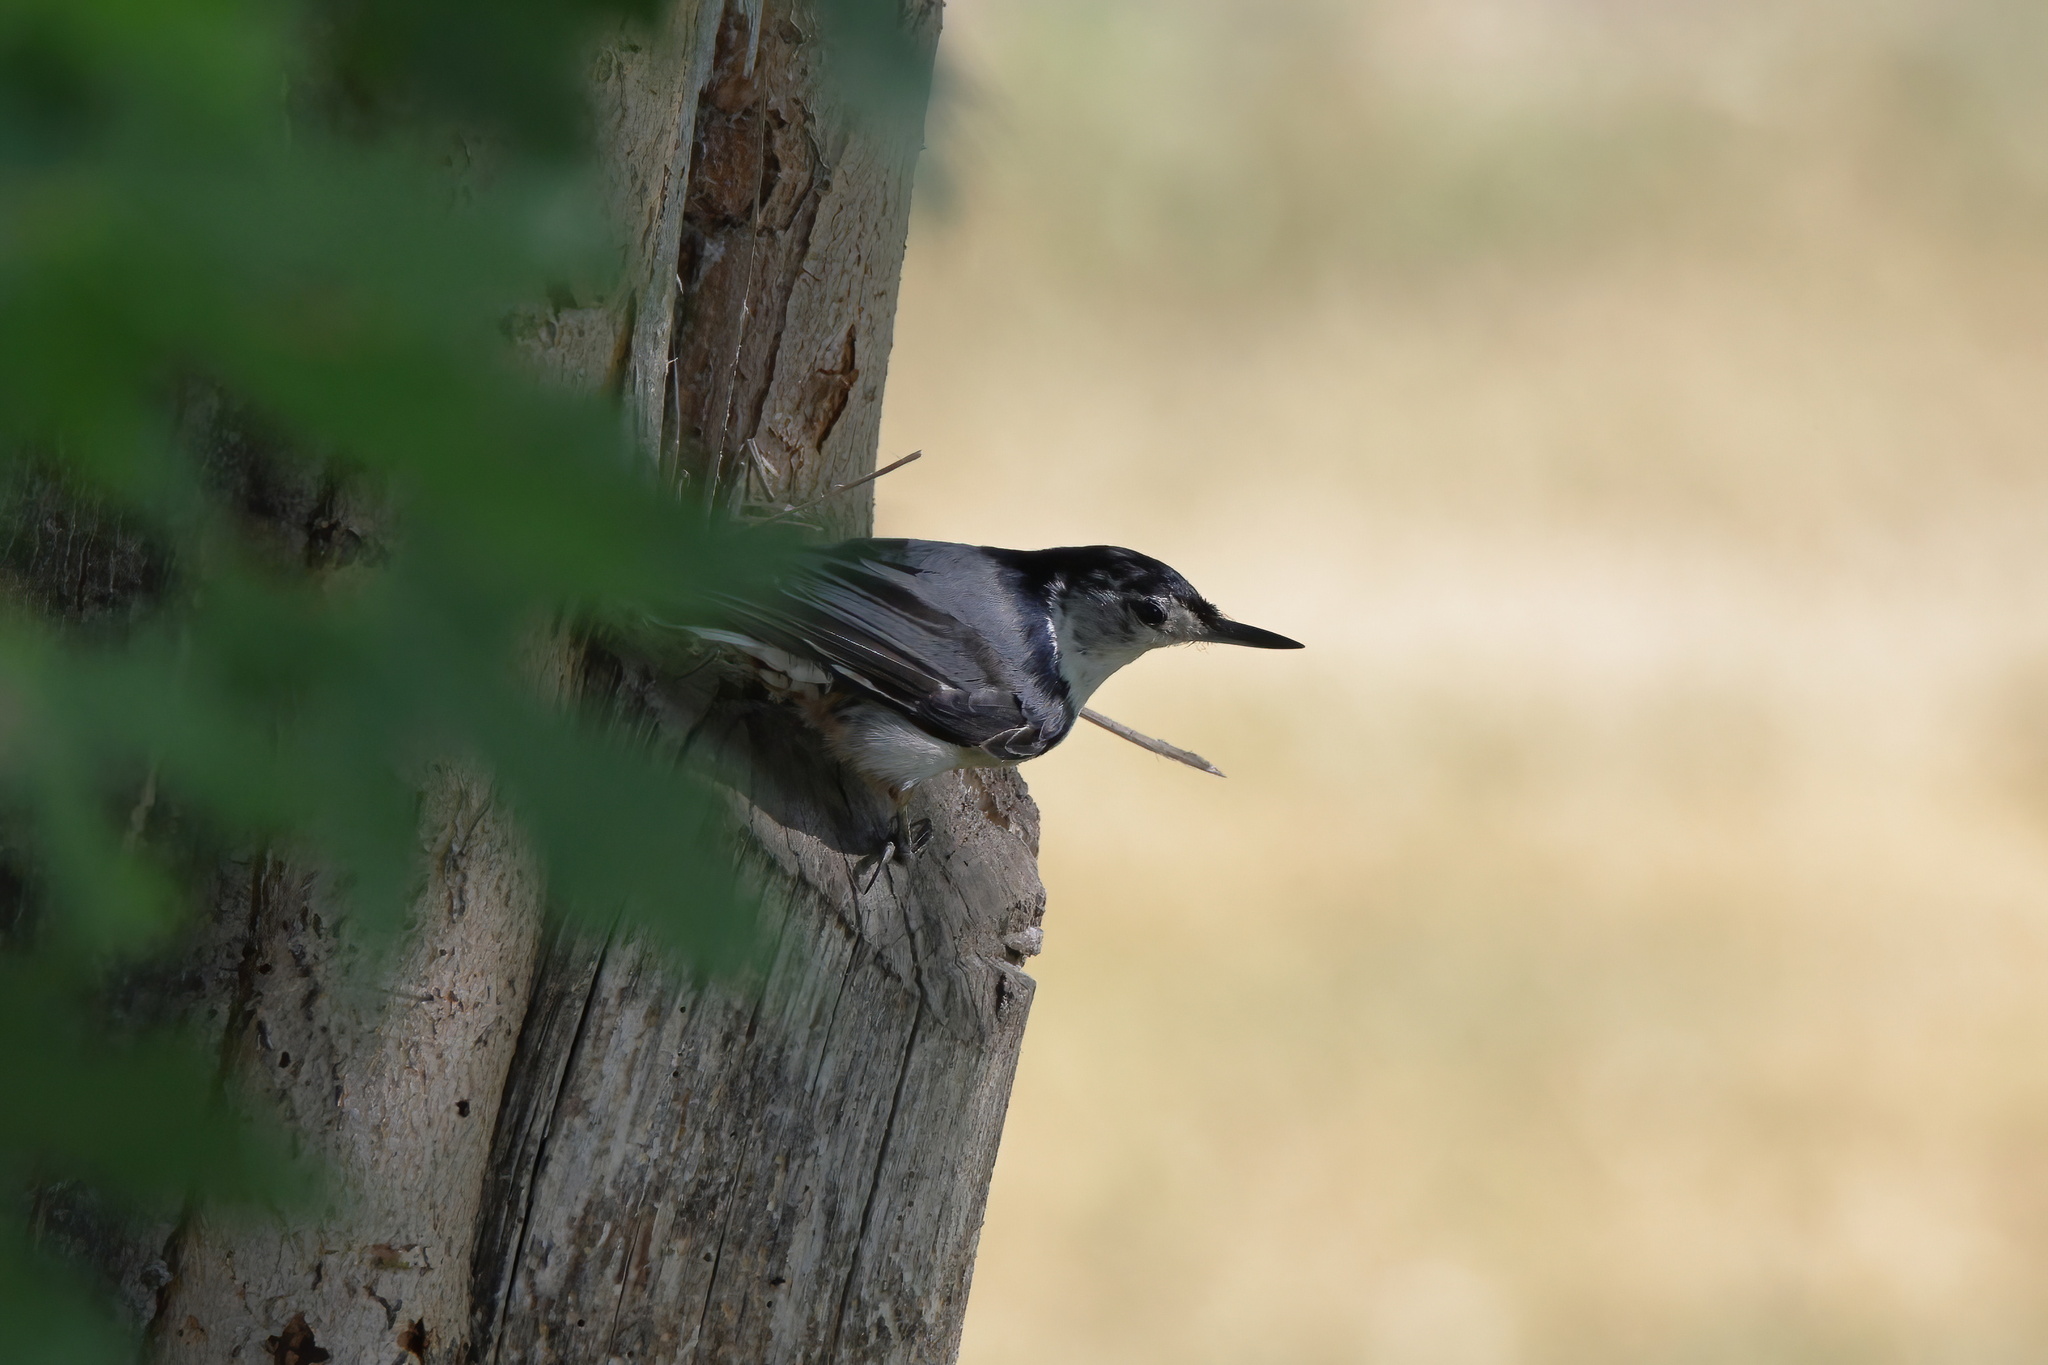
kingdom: Animalia
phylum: Chordata
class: Aves
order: Passeriformes
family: Sittidae
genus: Sitta
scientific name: Sitta carolinensis
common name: White-breasted nuthatch
